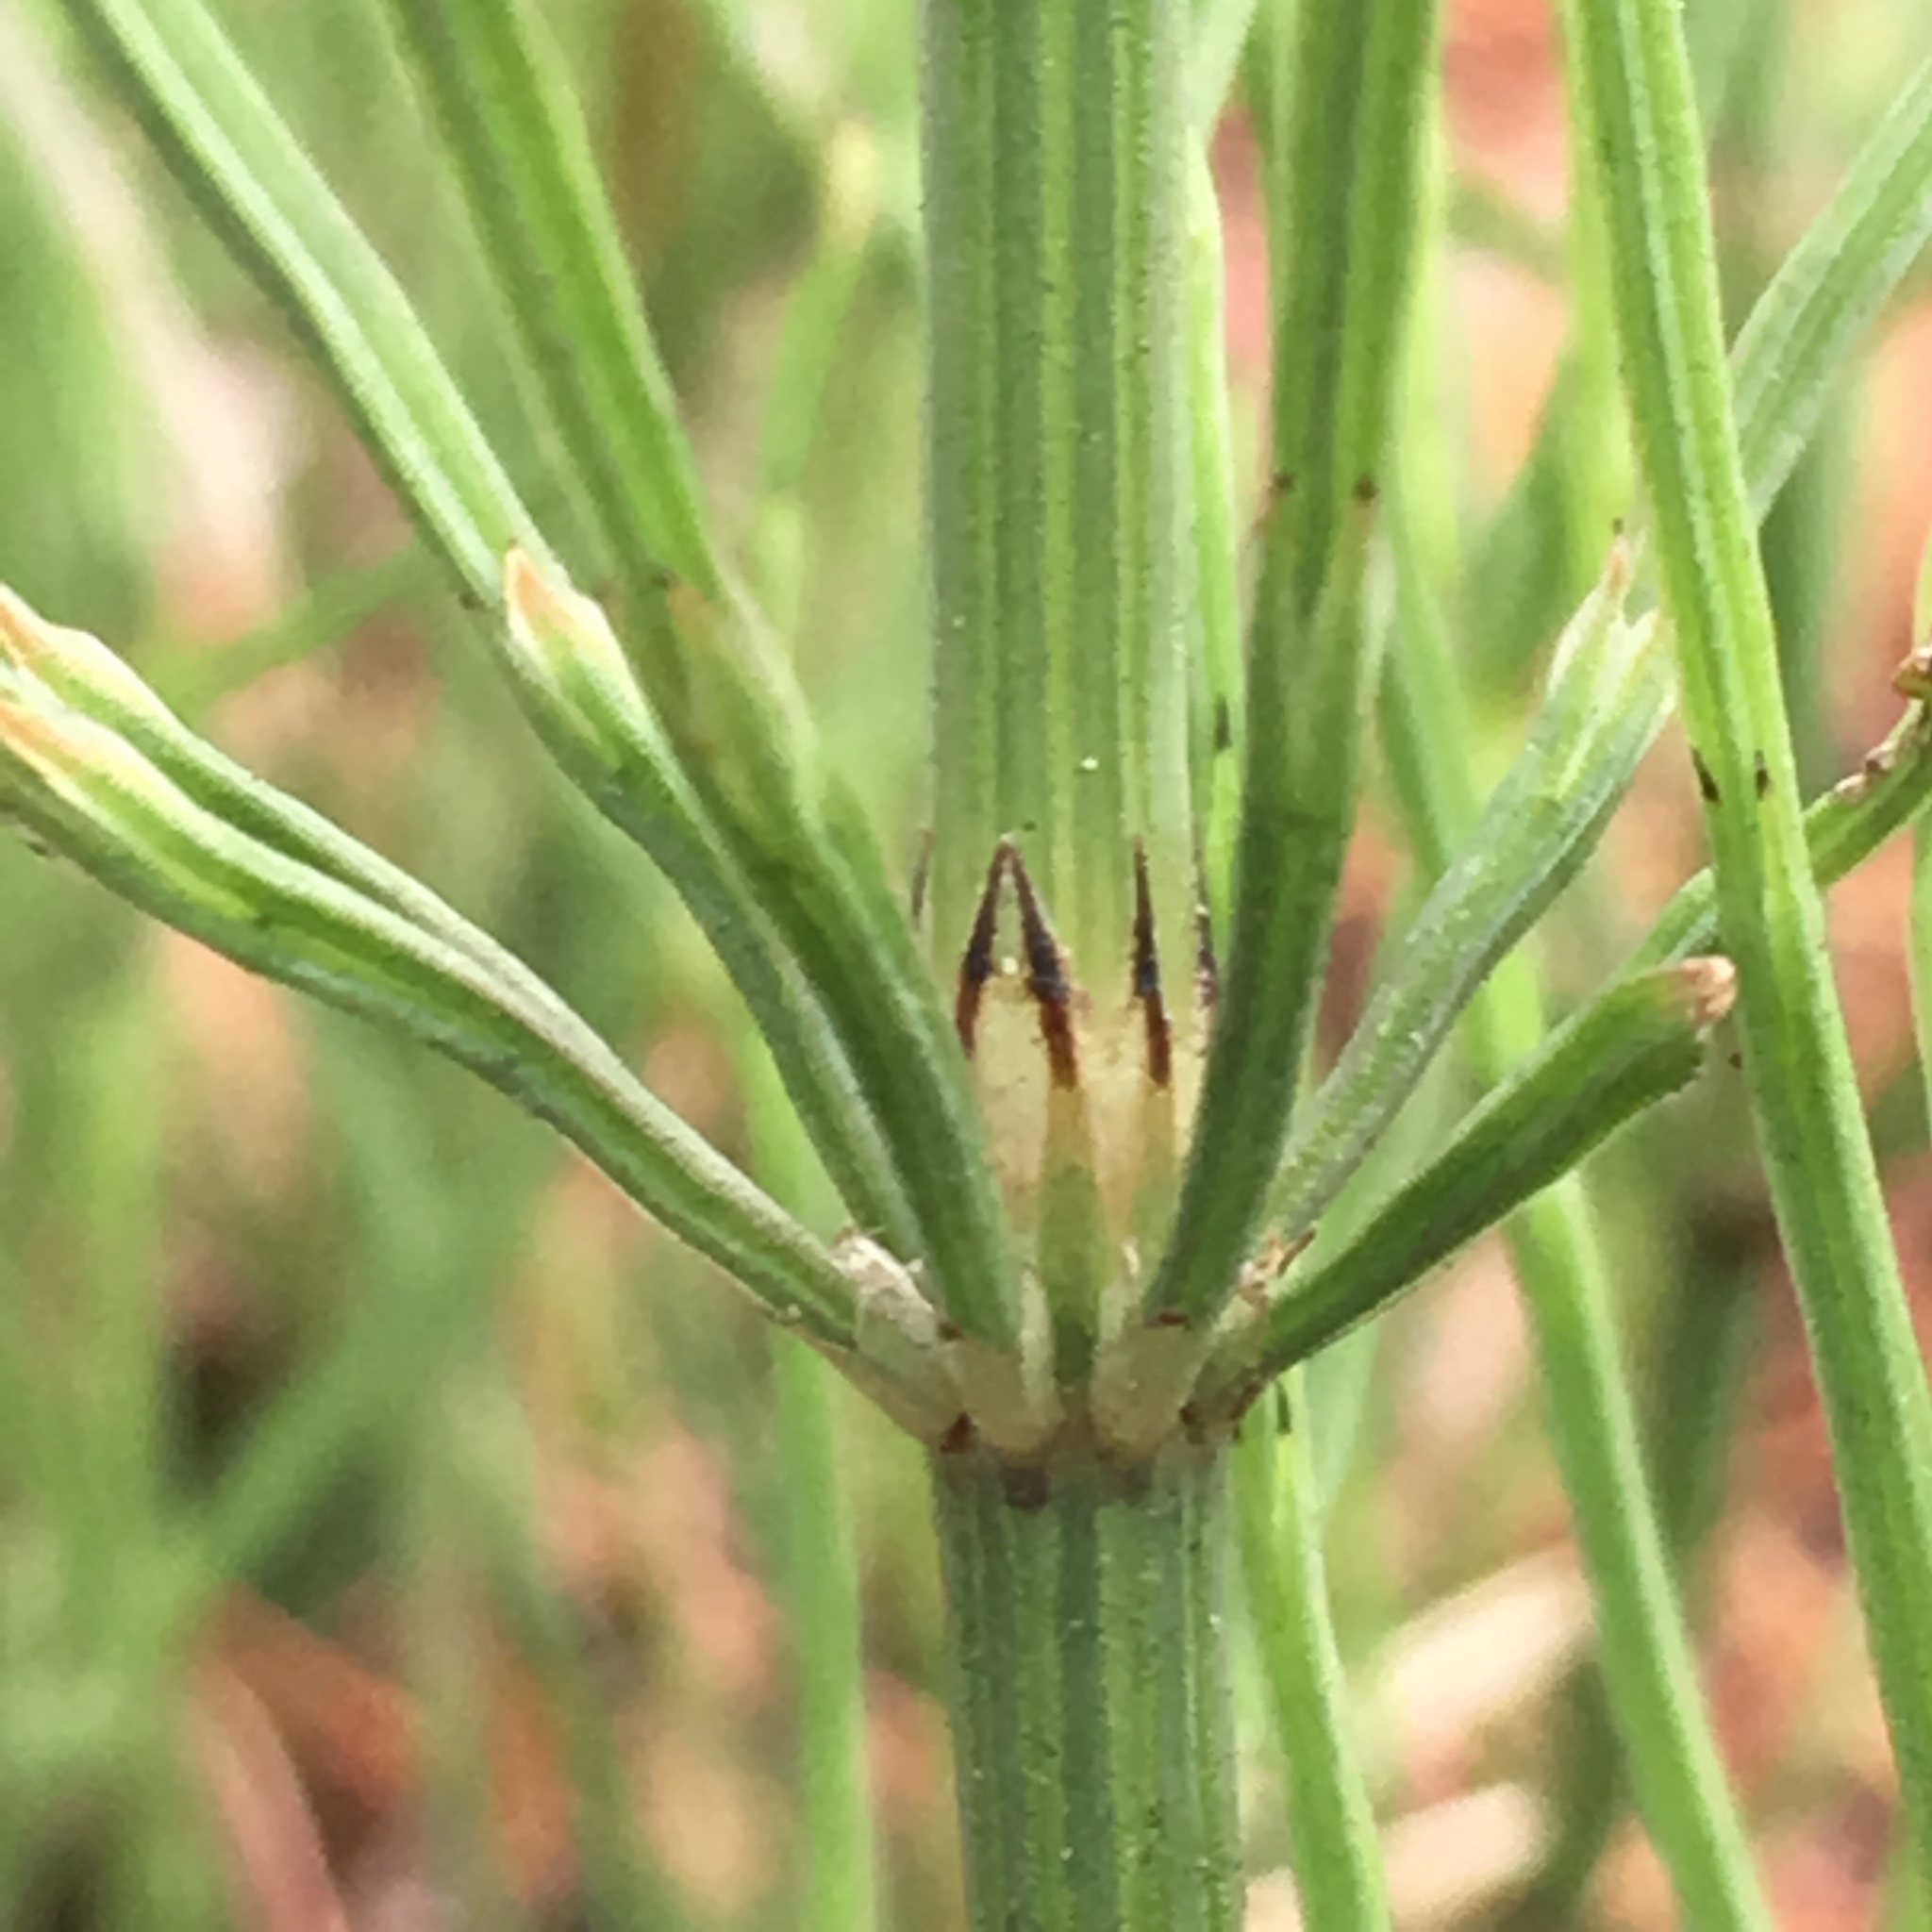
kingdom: Plantae
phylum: Tracheophyta
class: Polypodiopsida
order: Equisetales
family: Equisetaceae
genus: Equisetum
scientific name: Equisetum arvense
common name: Field horsetail
